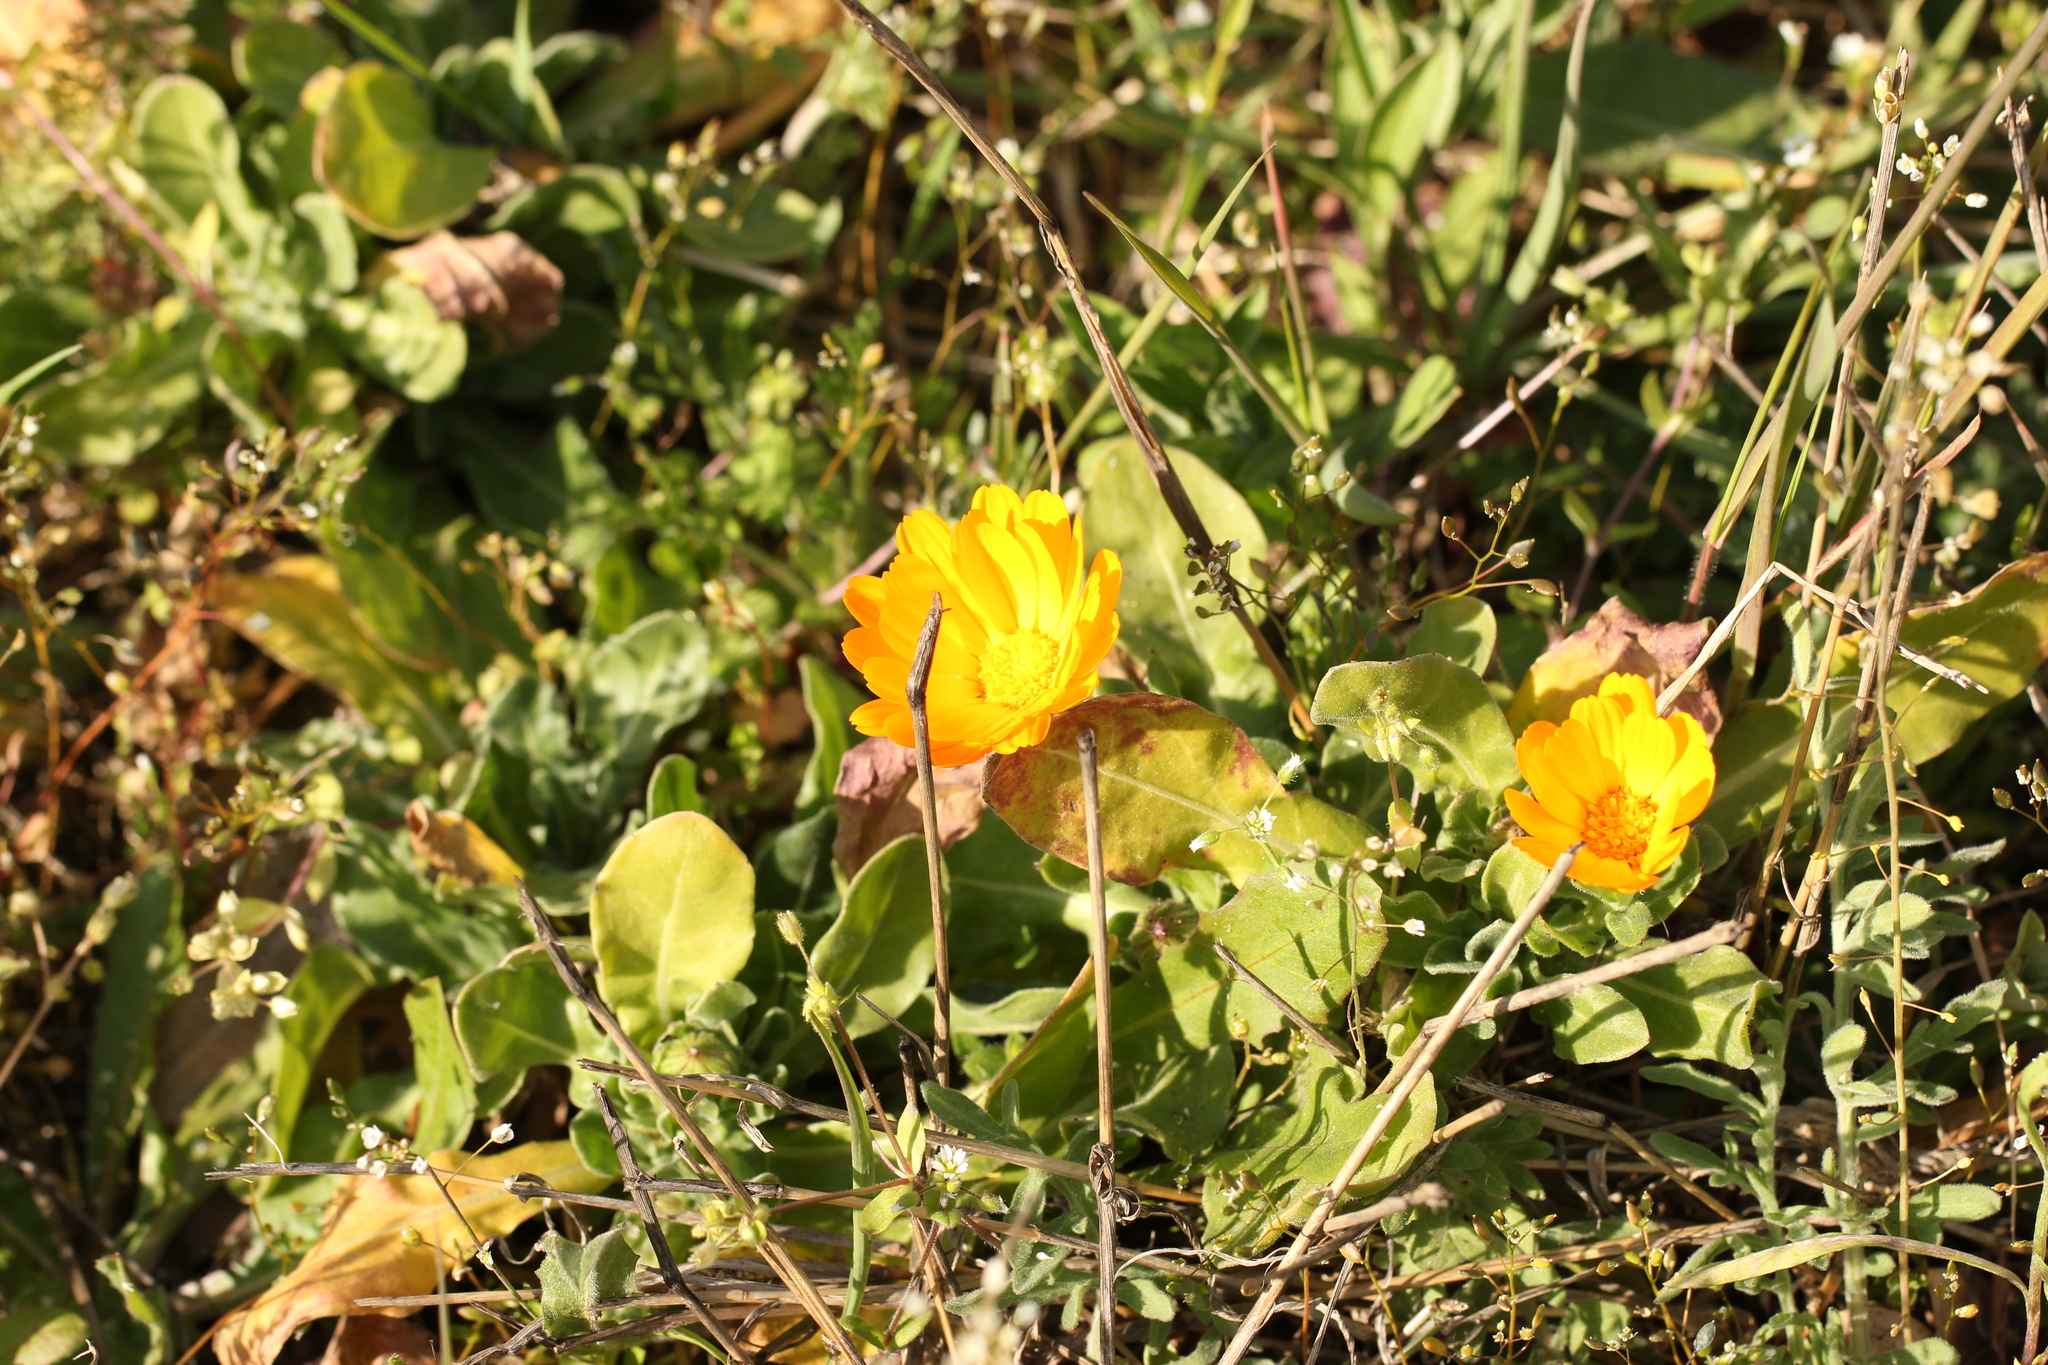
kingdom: Plantae
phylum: Tracheophyta
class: Magnoliopsida
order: Asterales
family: Asteraceae
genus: Calendula
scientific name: Calendula officinalis
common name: Pot marigold
